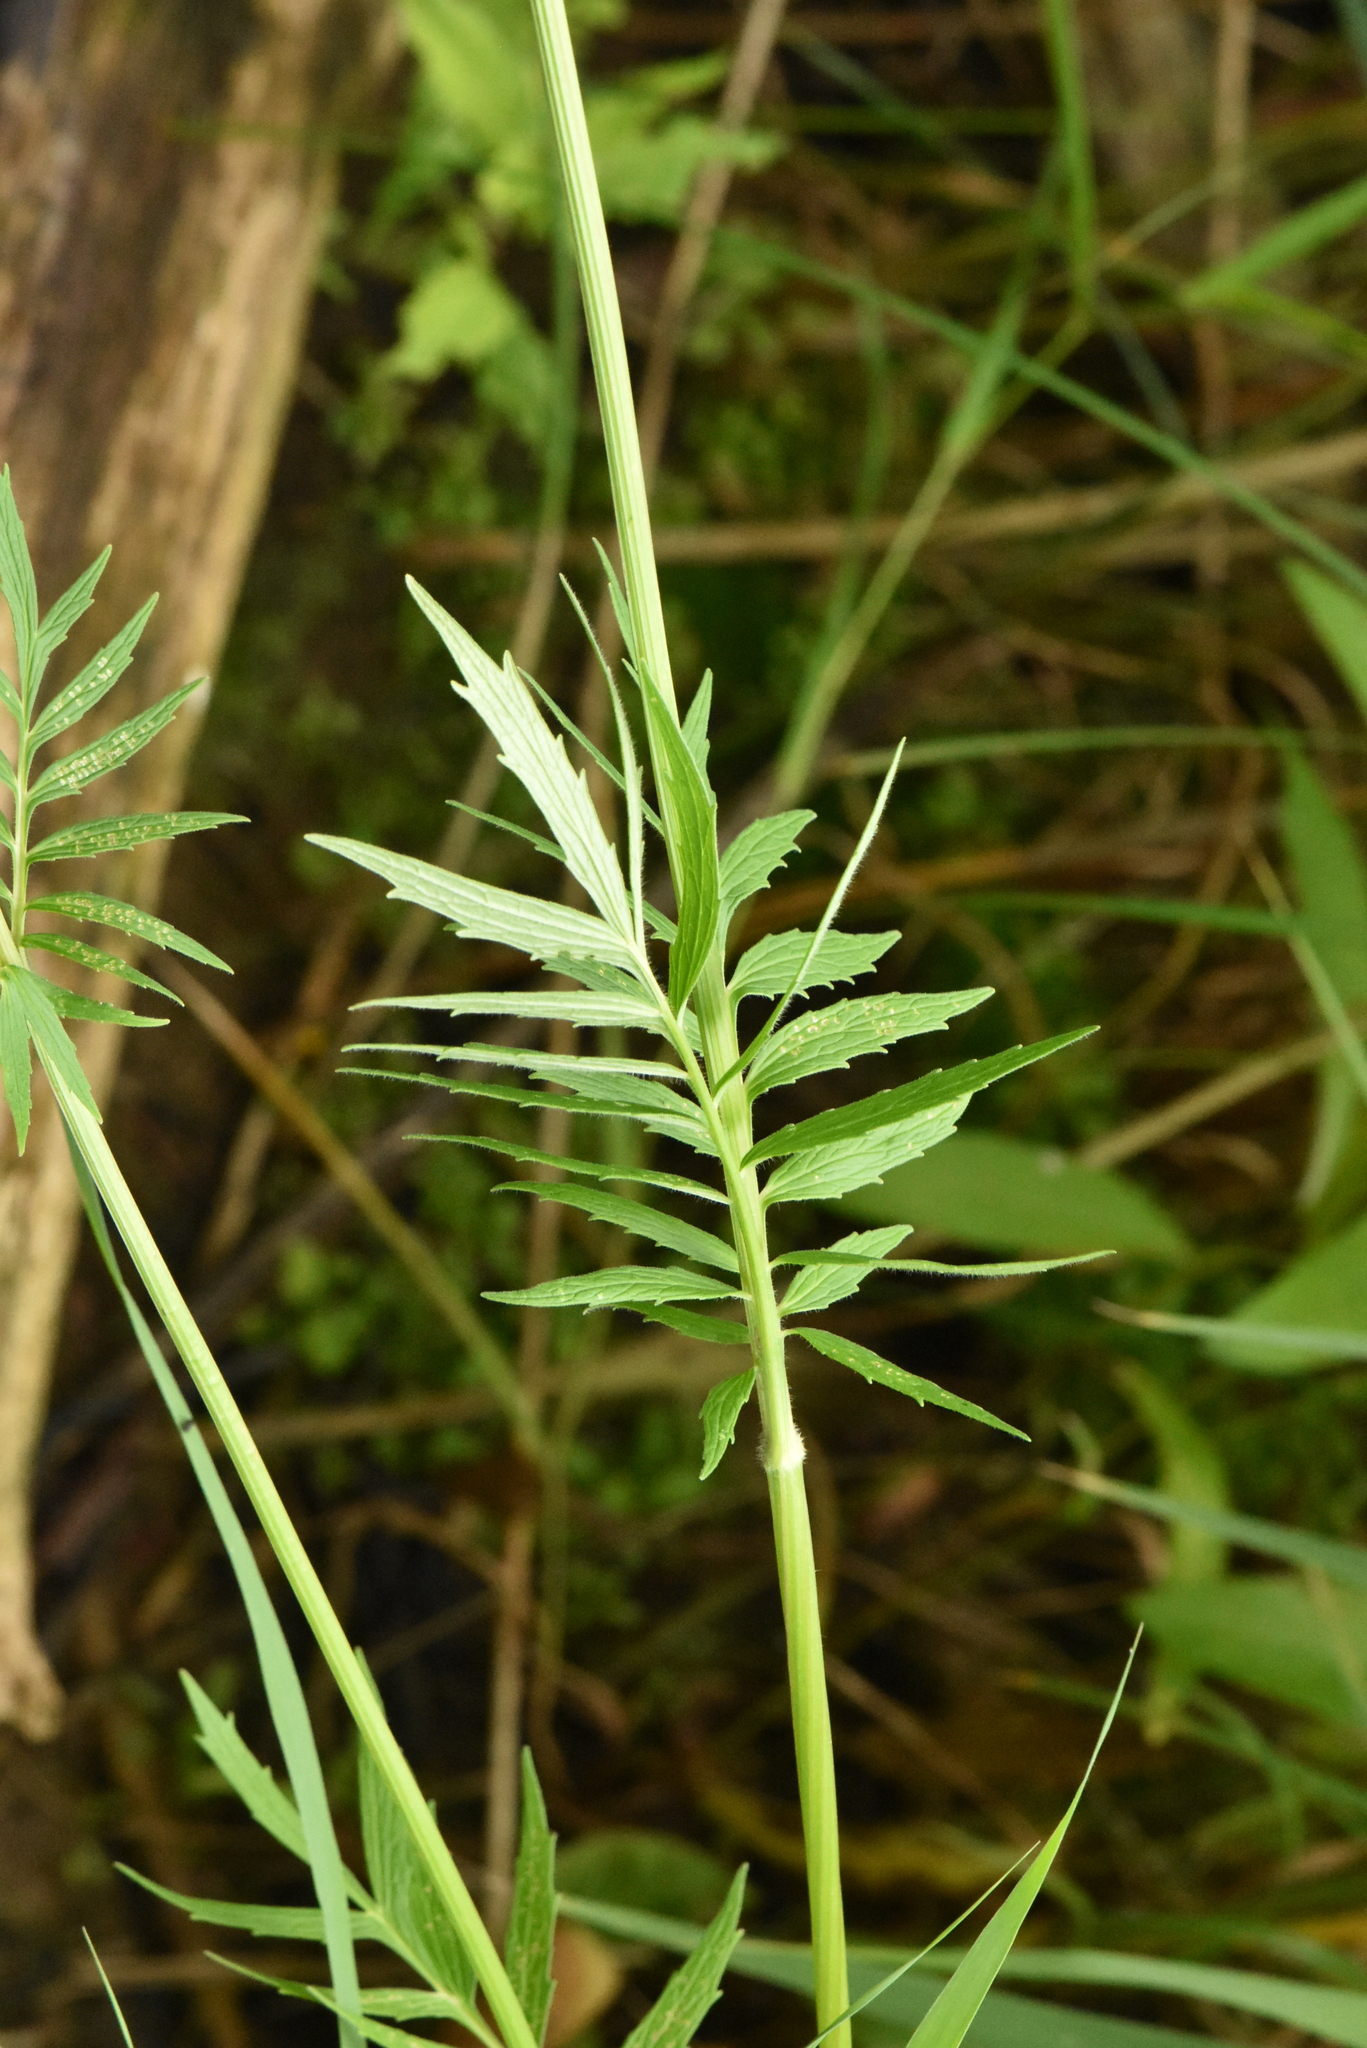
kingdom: Plantae
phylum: Tracheophyta
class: Magnoliopsida
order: Dipsacales
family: Caprifoliaceae
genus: Valeriana
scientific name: Valeriana officinalis
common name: Common valerian
